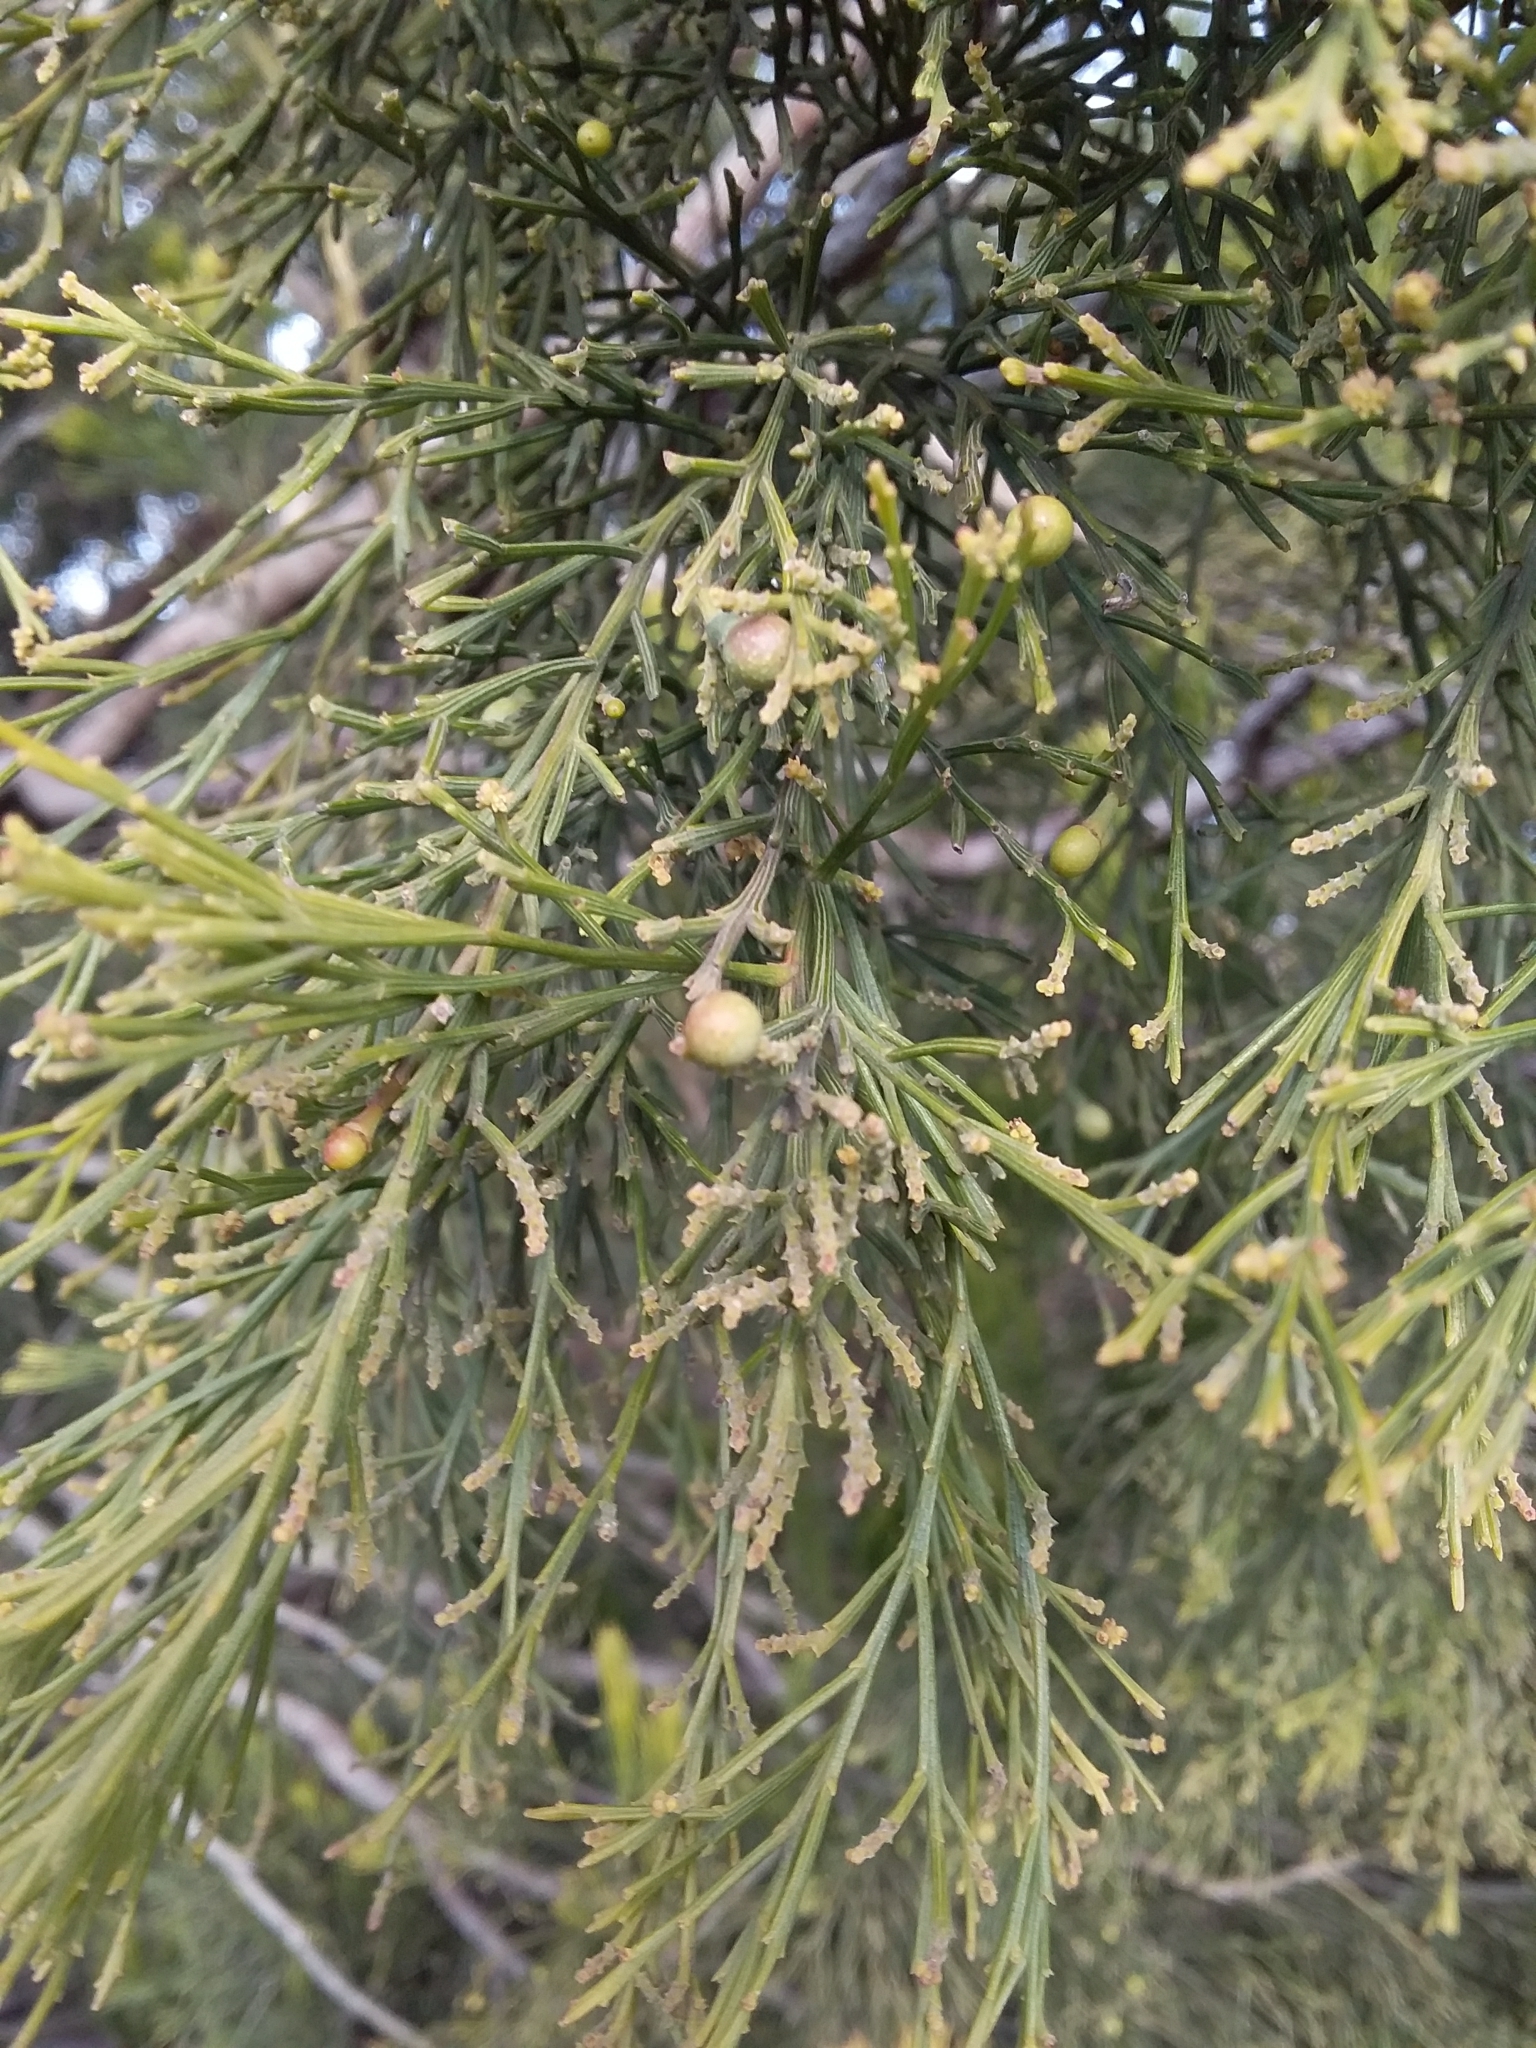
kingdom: Plantae
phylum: Tracheophyta
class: Magnoliopsida
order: Santalales
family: Santalaceae
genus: Exocarpos
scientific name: Exocarpos cupressiformis
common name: Cherry ballart
